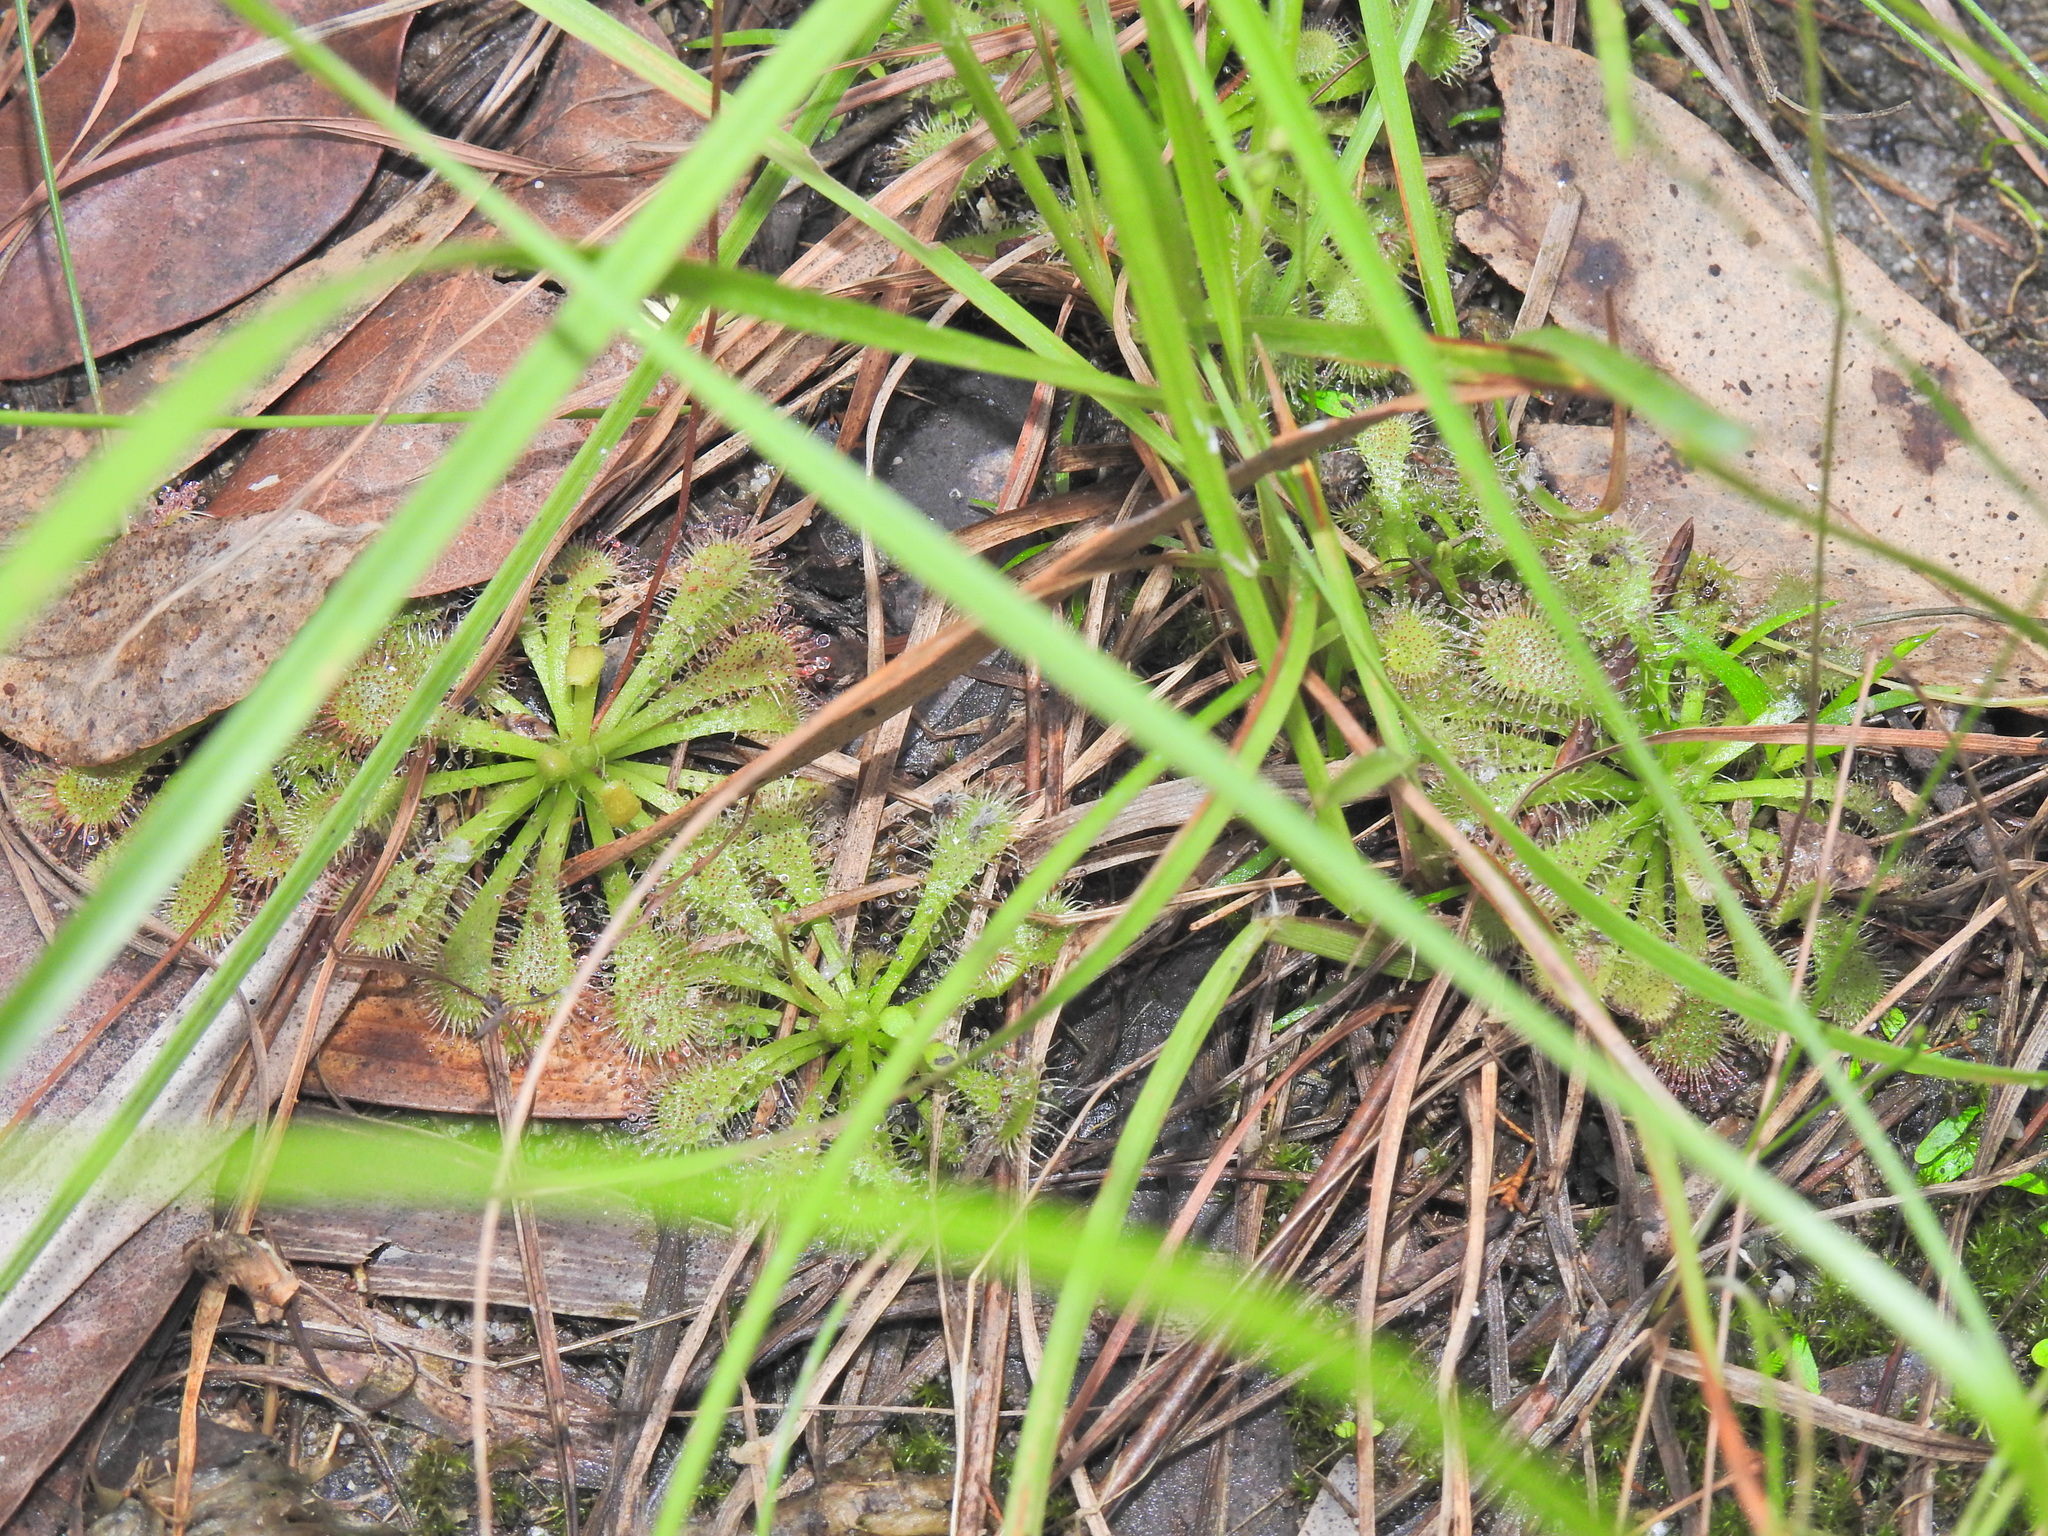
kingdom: Plantae
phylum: Tracheophyta
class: Magnoliopsida
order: Caryophyllales
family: Droseraceae
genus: Drosera
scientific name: Drosera spatulata
